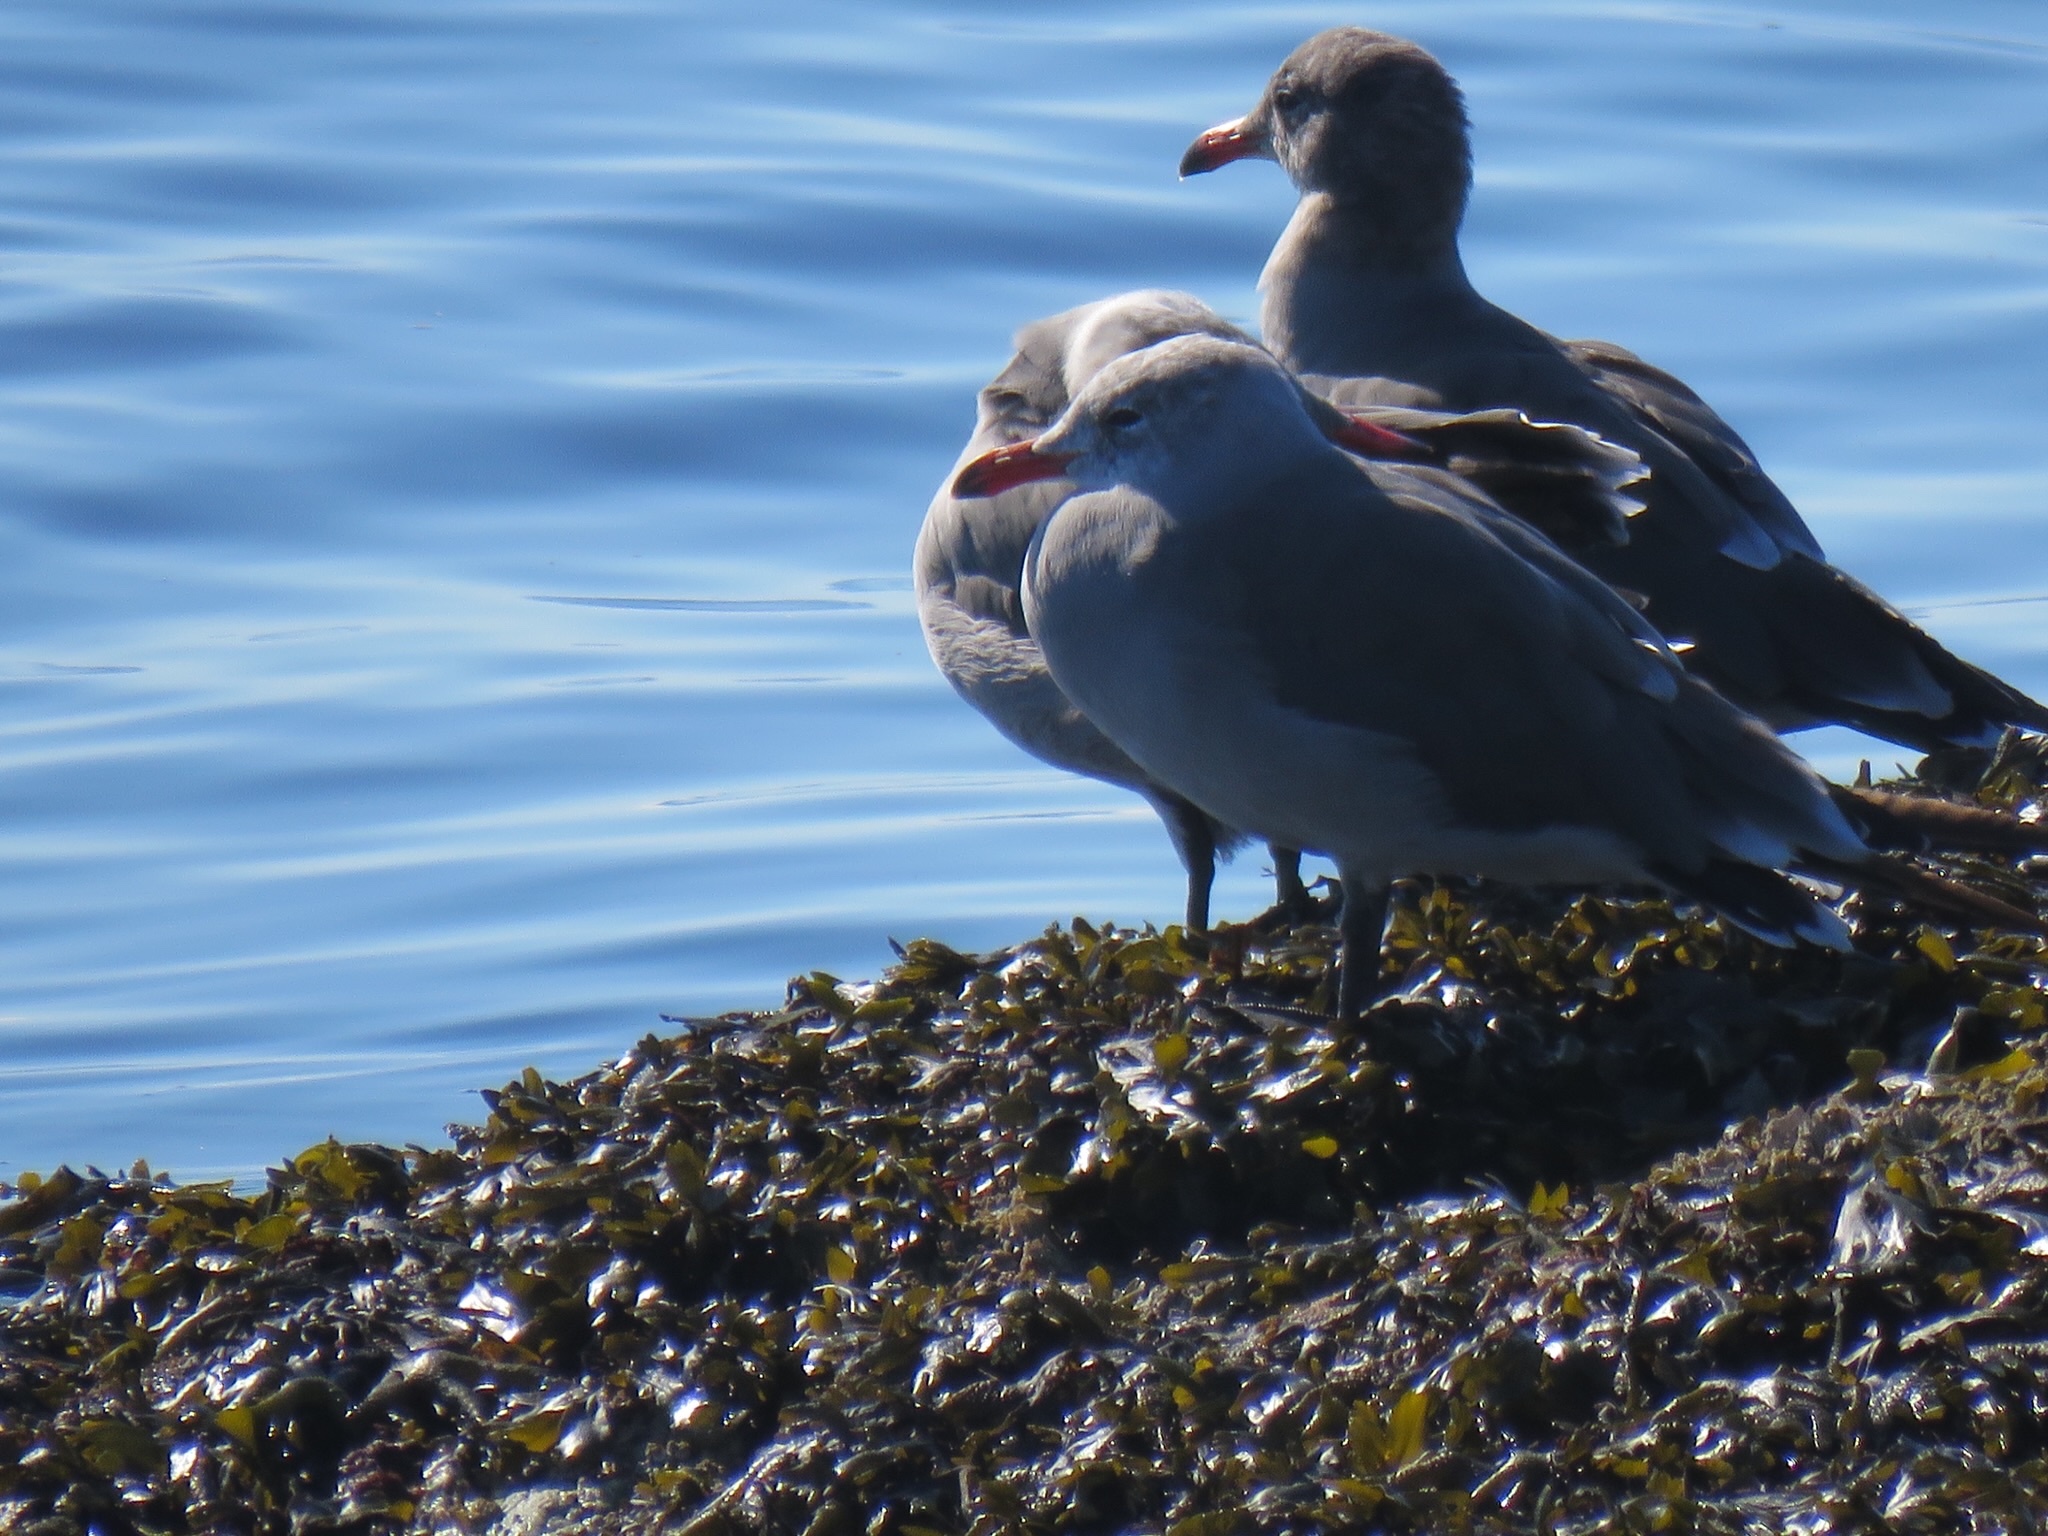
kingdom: Animalia
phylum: Chordata
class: Aves
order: Charadriiformes
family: Laridae
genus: Larus
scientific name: Larus heermanni
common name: Heermann's gull
